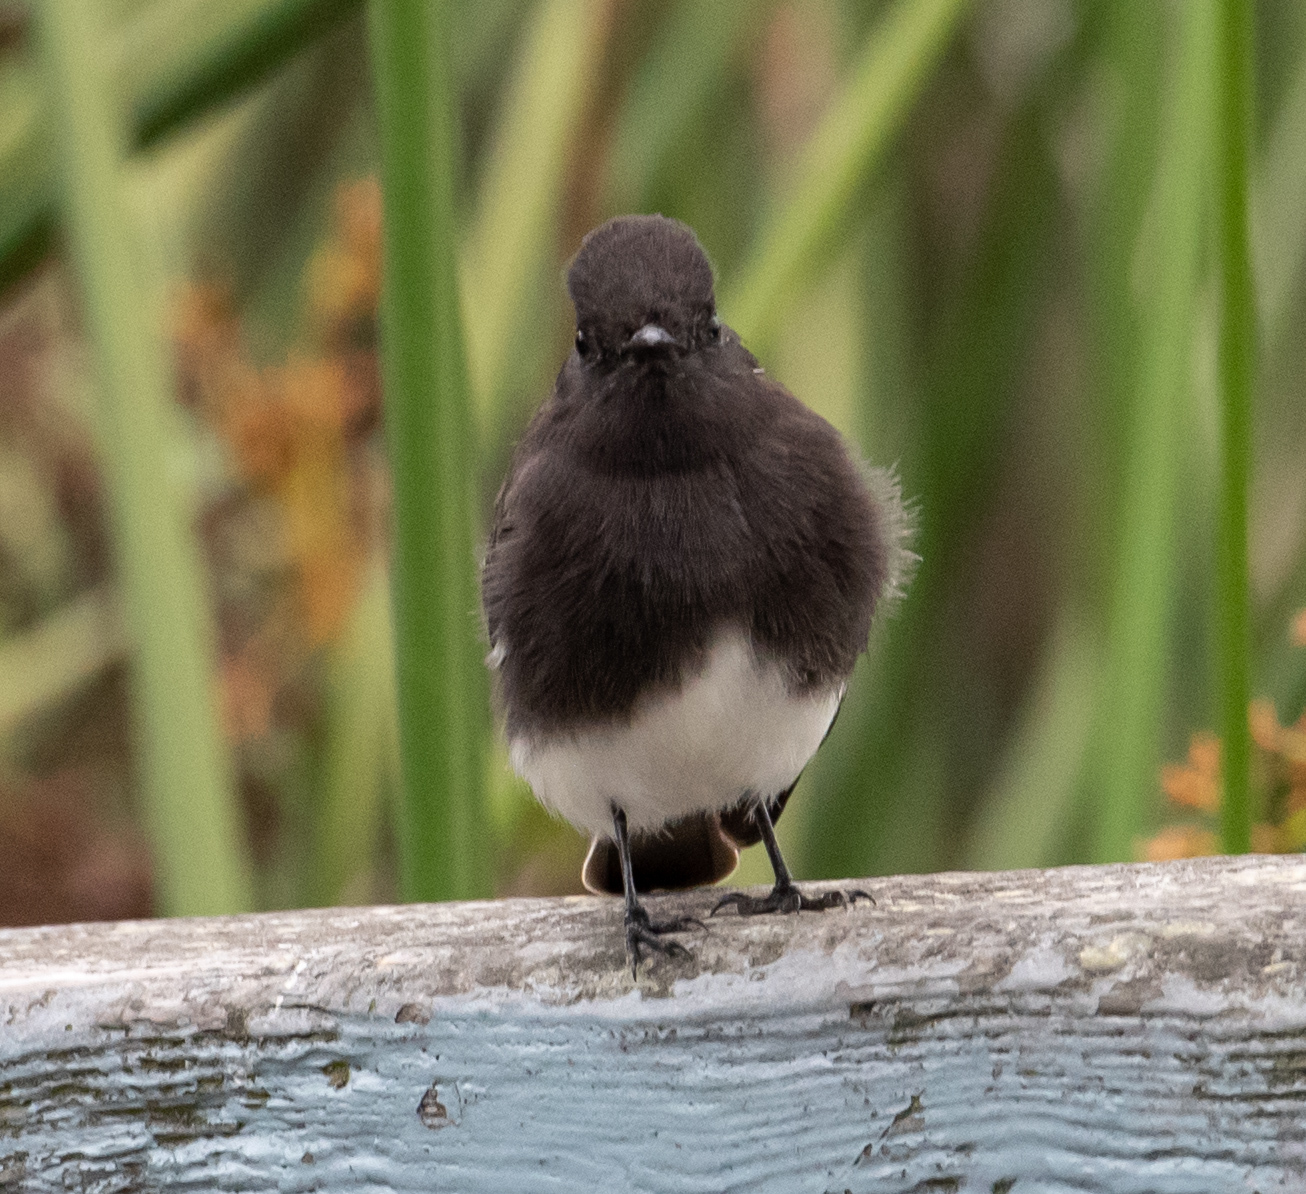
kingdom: Animalia
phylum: Chordata
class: Aves
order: Passeriformes
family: Tyrannidae
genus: Sayornis
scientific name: Sayornis nigricans
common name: Black phoebe
